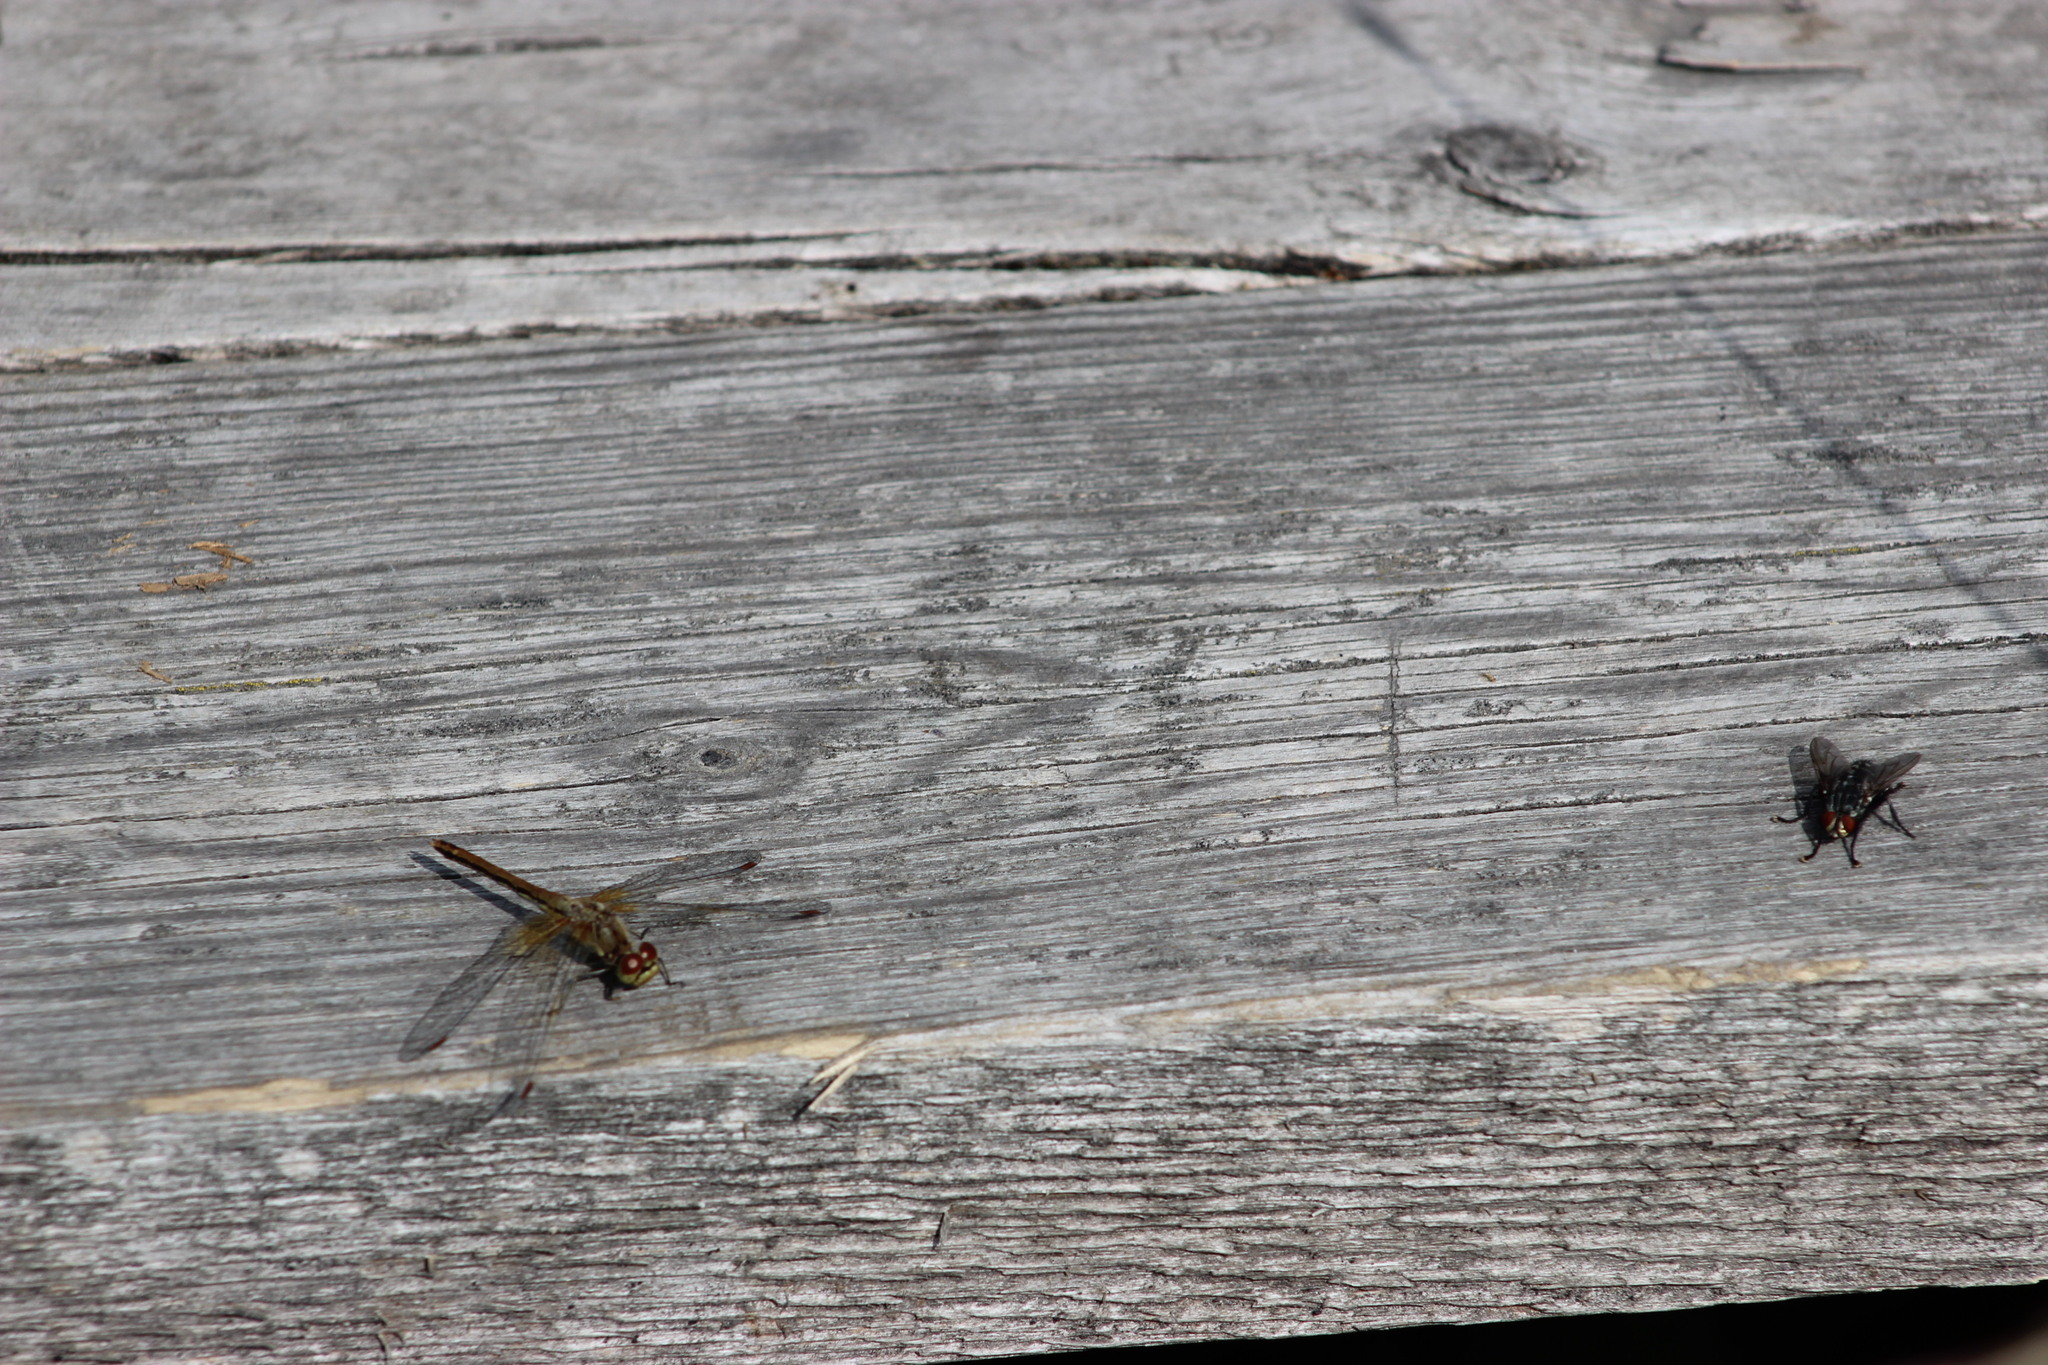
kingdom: Animalia
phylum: Arthropoda
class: Insecta
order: Odonata
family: Libellulidae
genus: Sympetrum
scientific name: Sympetrum flaveolum
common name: Yellow-winged darter
